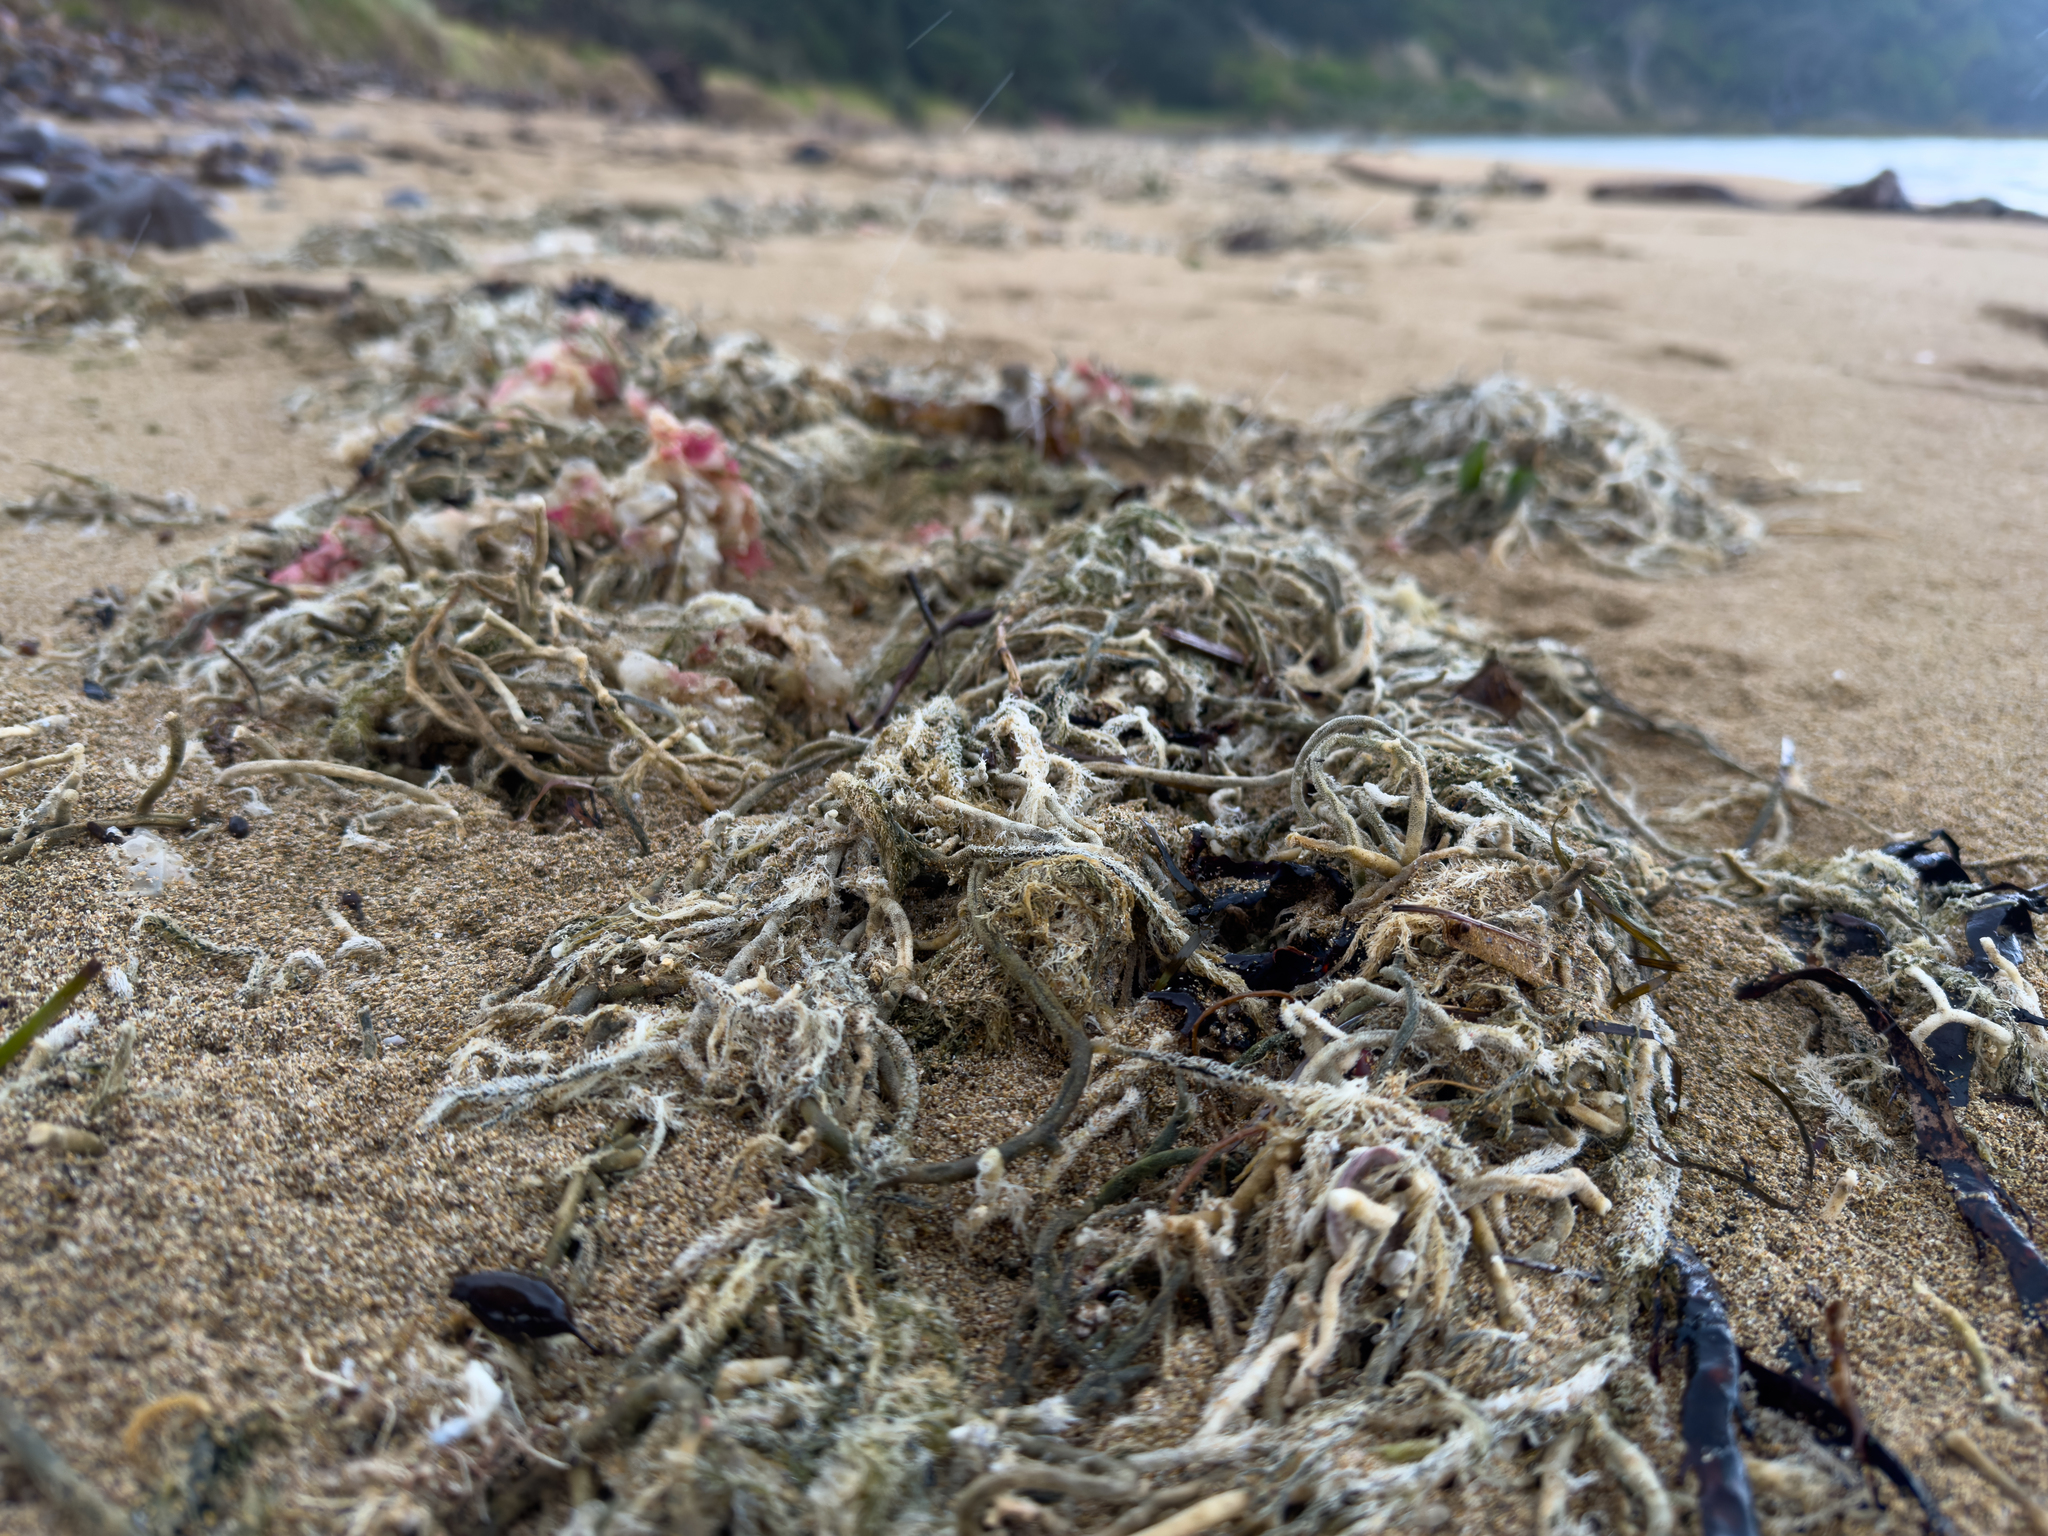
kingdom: Plantae
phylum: Chlorophyta
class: Ulvophyceae
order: Bryopsidales
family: Codiaceae
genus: Codium
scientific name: Codium fragile
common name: Dead man's fingers
